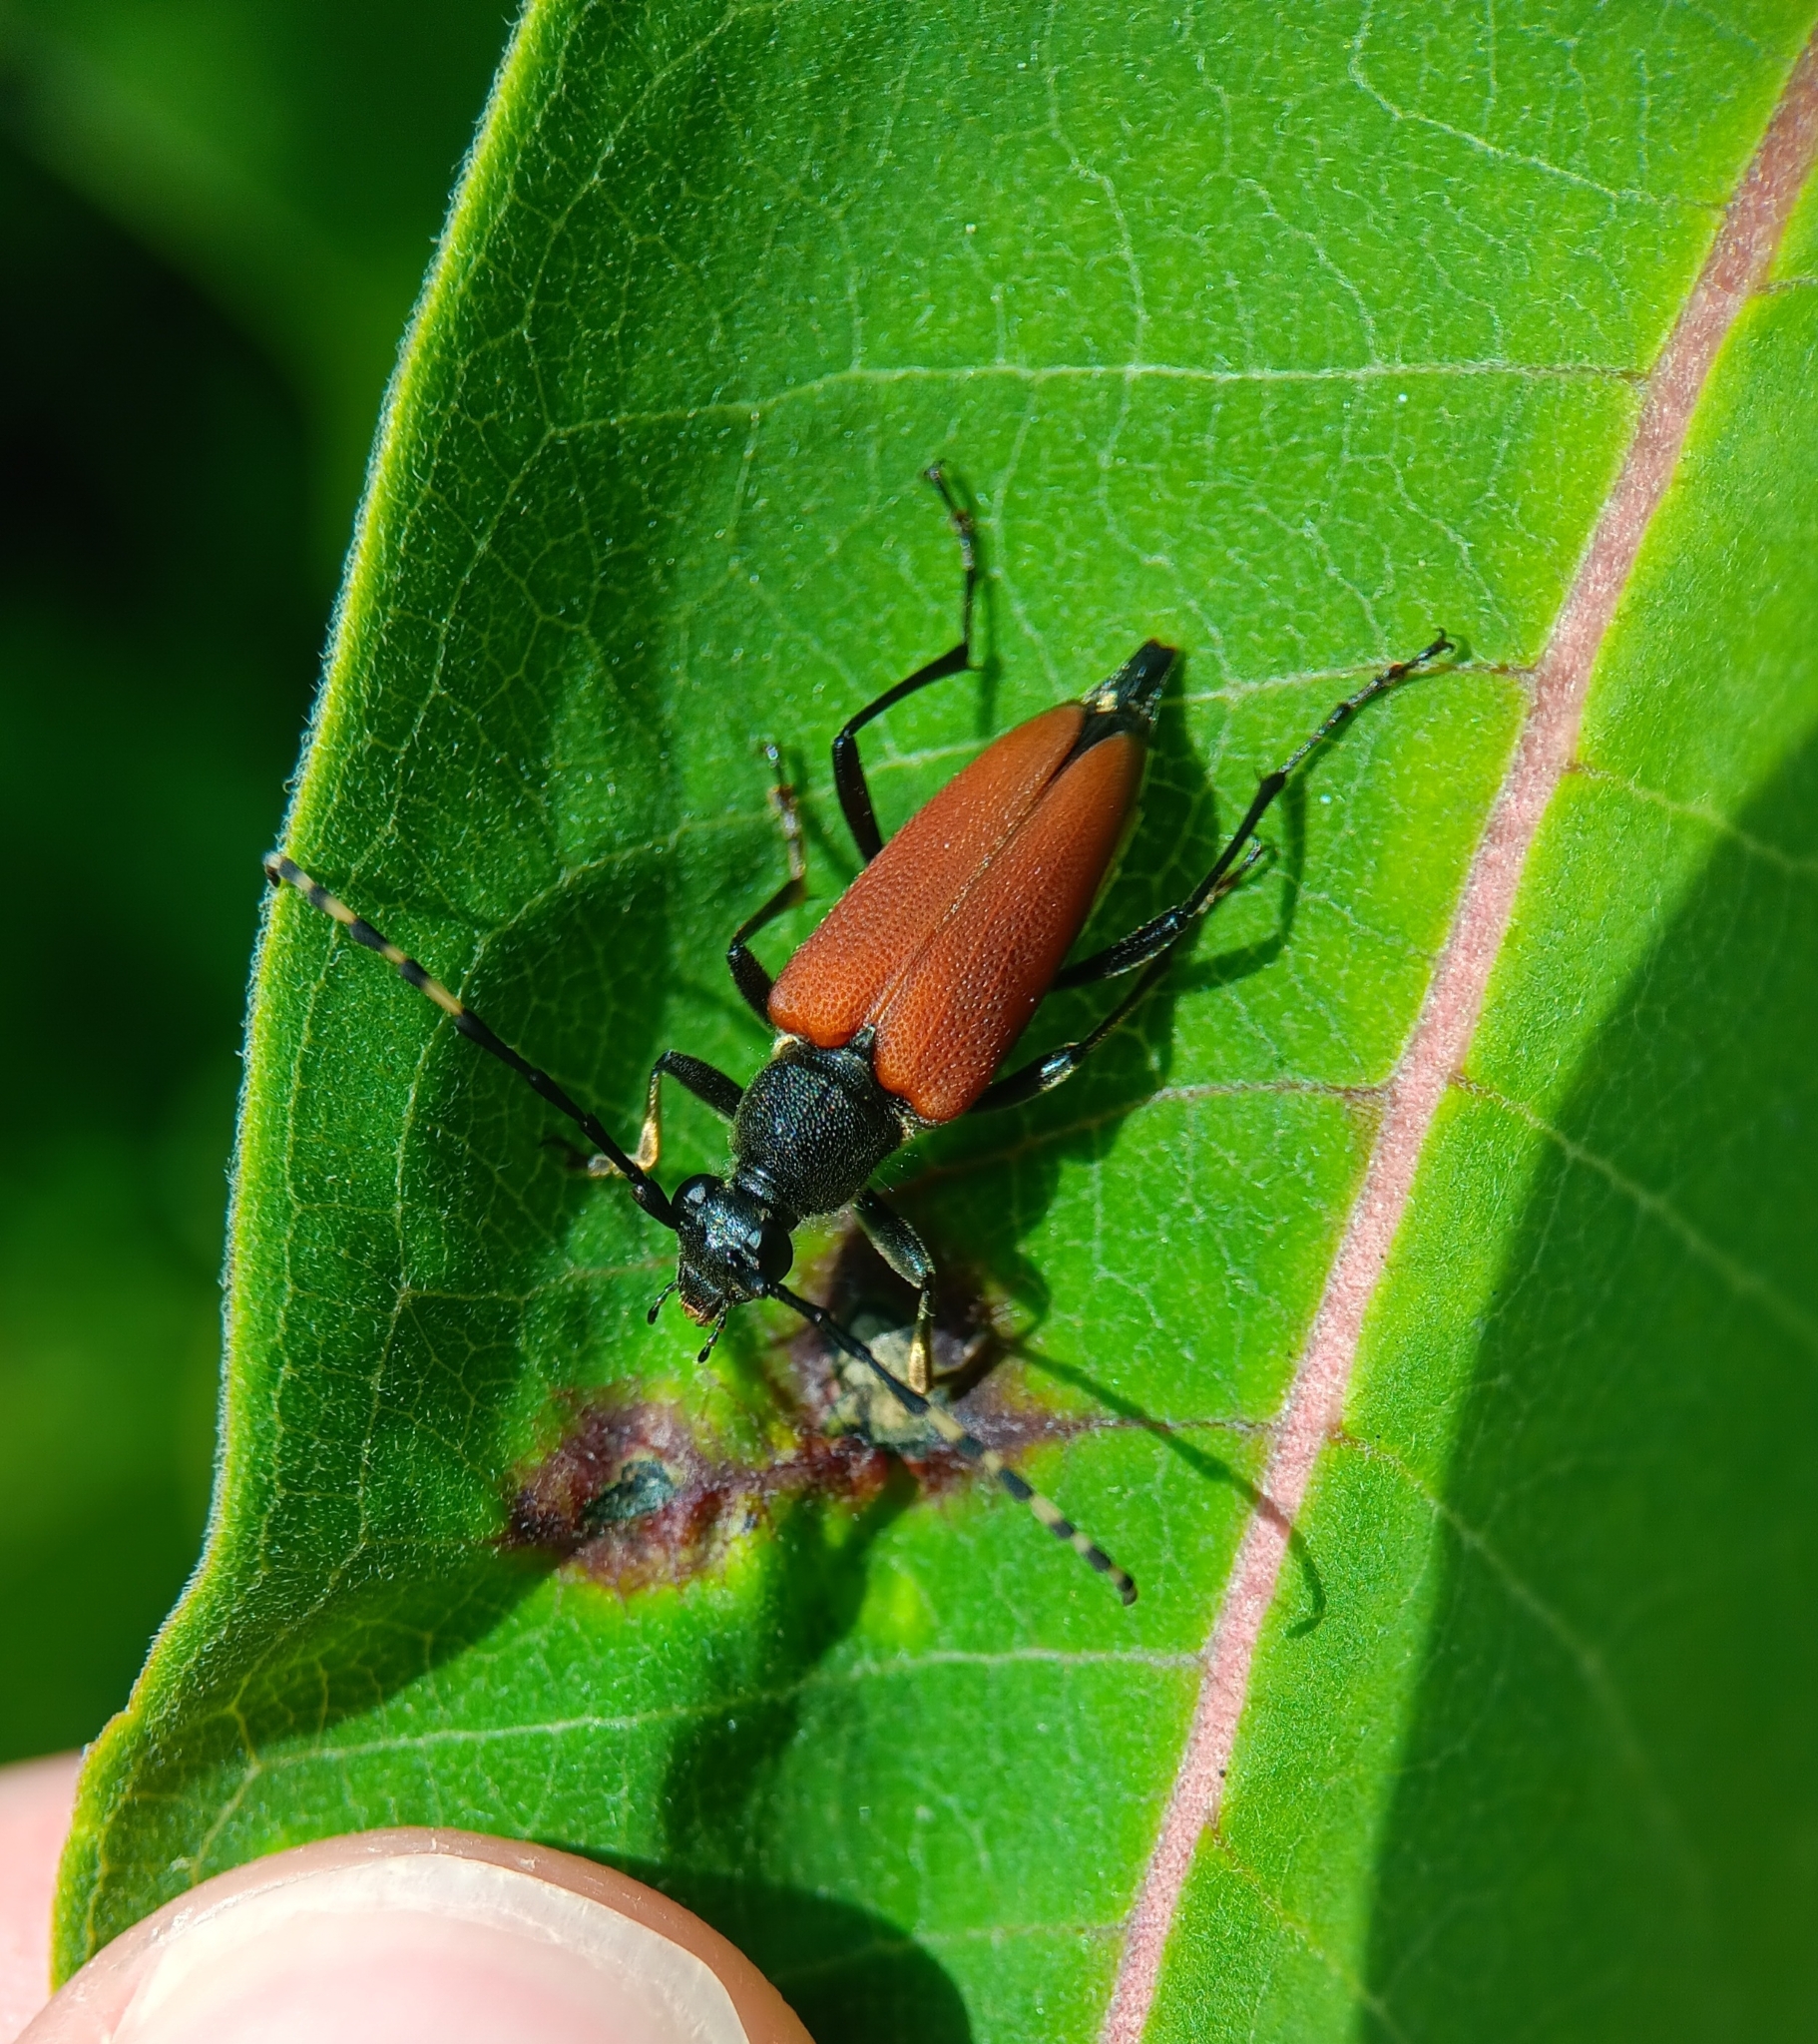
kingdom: Animalia
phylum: Arthropoda
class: Insecta
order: Coleoptera
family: Cerambycidae
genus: Brachyleptura
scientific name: Brachyleptura rubrica
